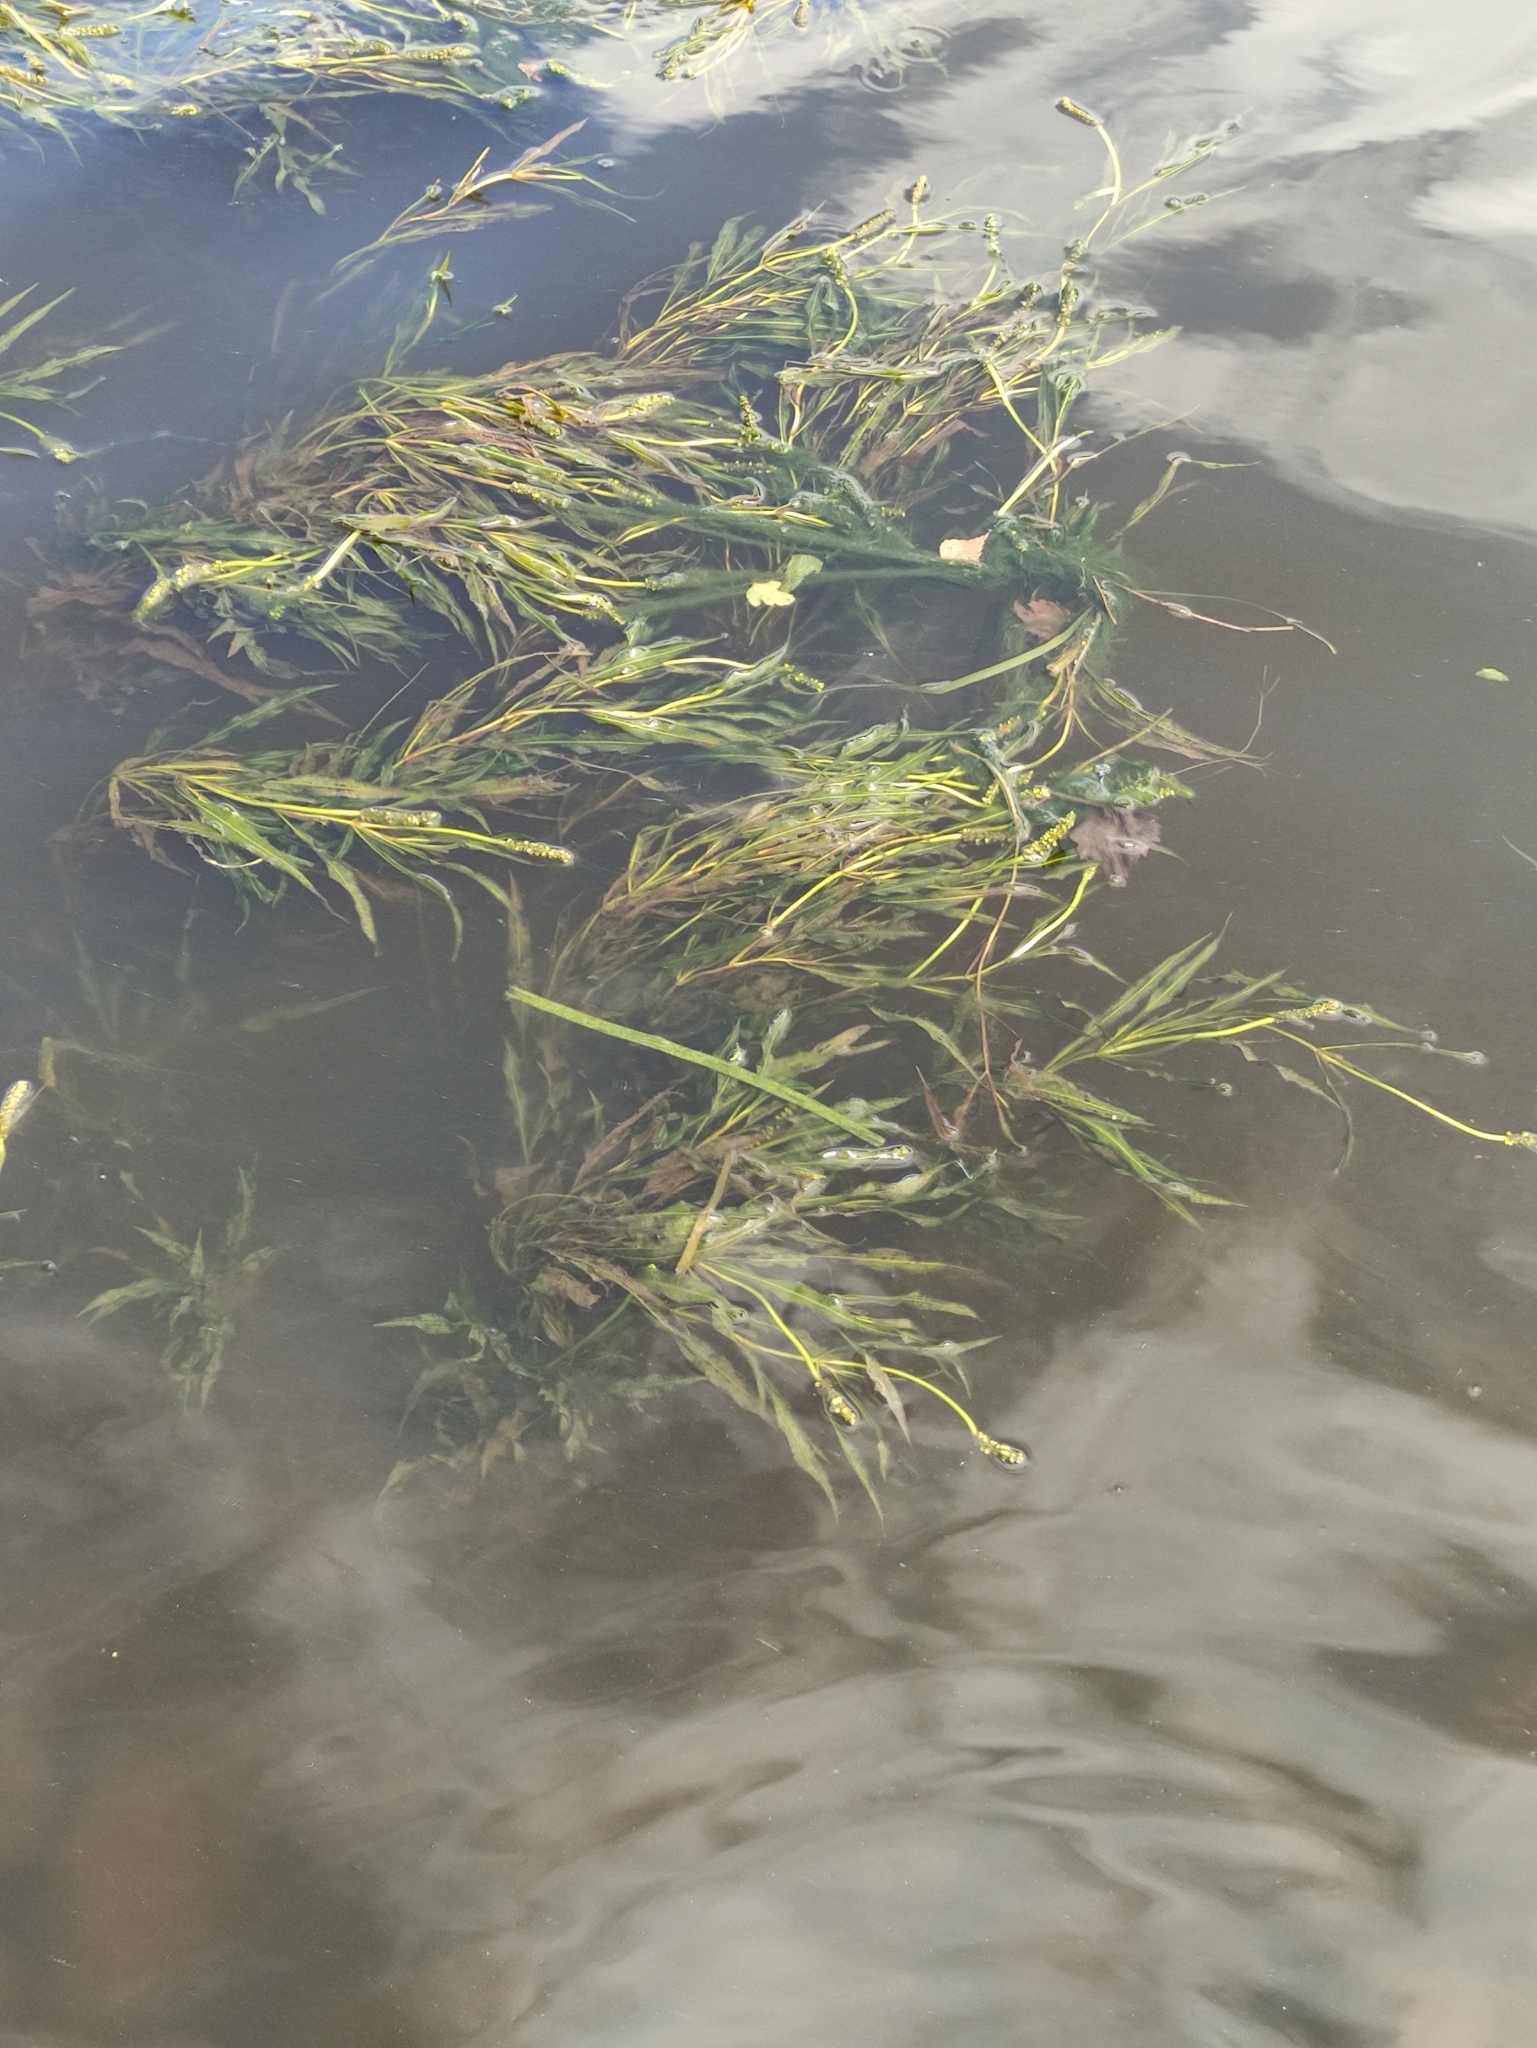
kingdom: Plantae
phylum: Tracheophyta
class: Liliopsida
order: Alismatales
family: Potamogetonaceae
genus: Potamogeton
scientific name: Potamogeton lucens
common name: Shining pondweed
